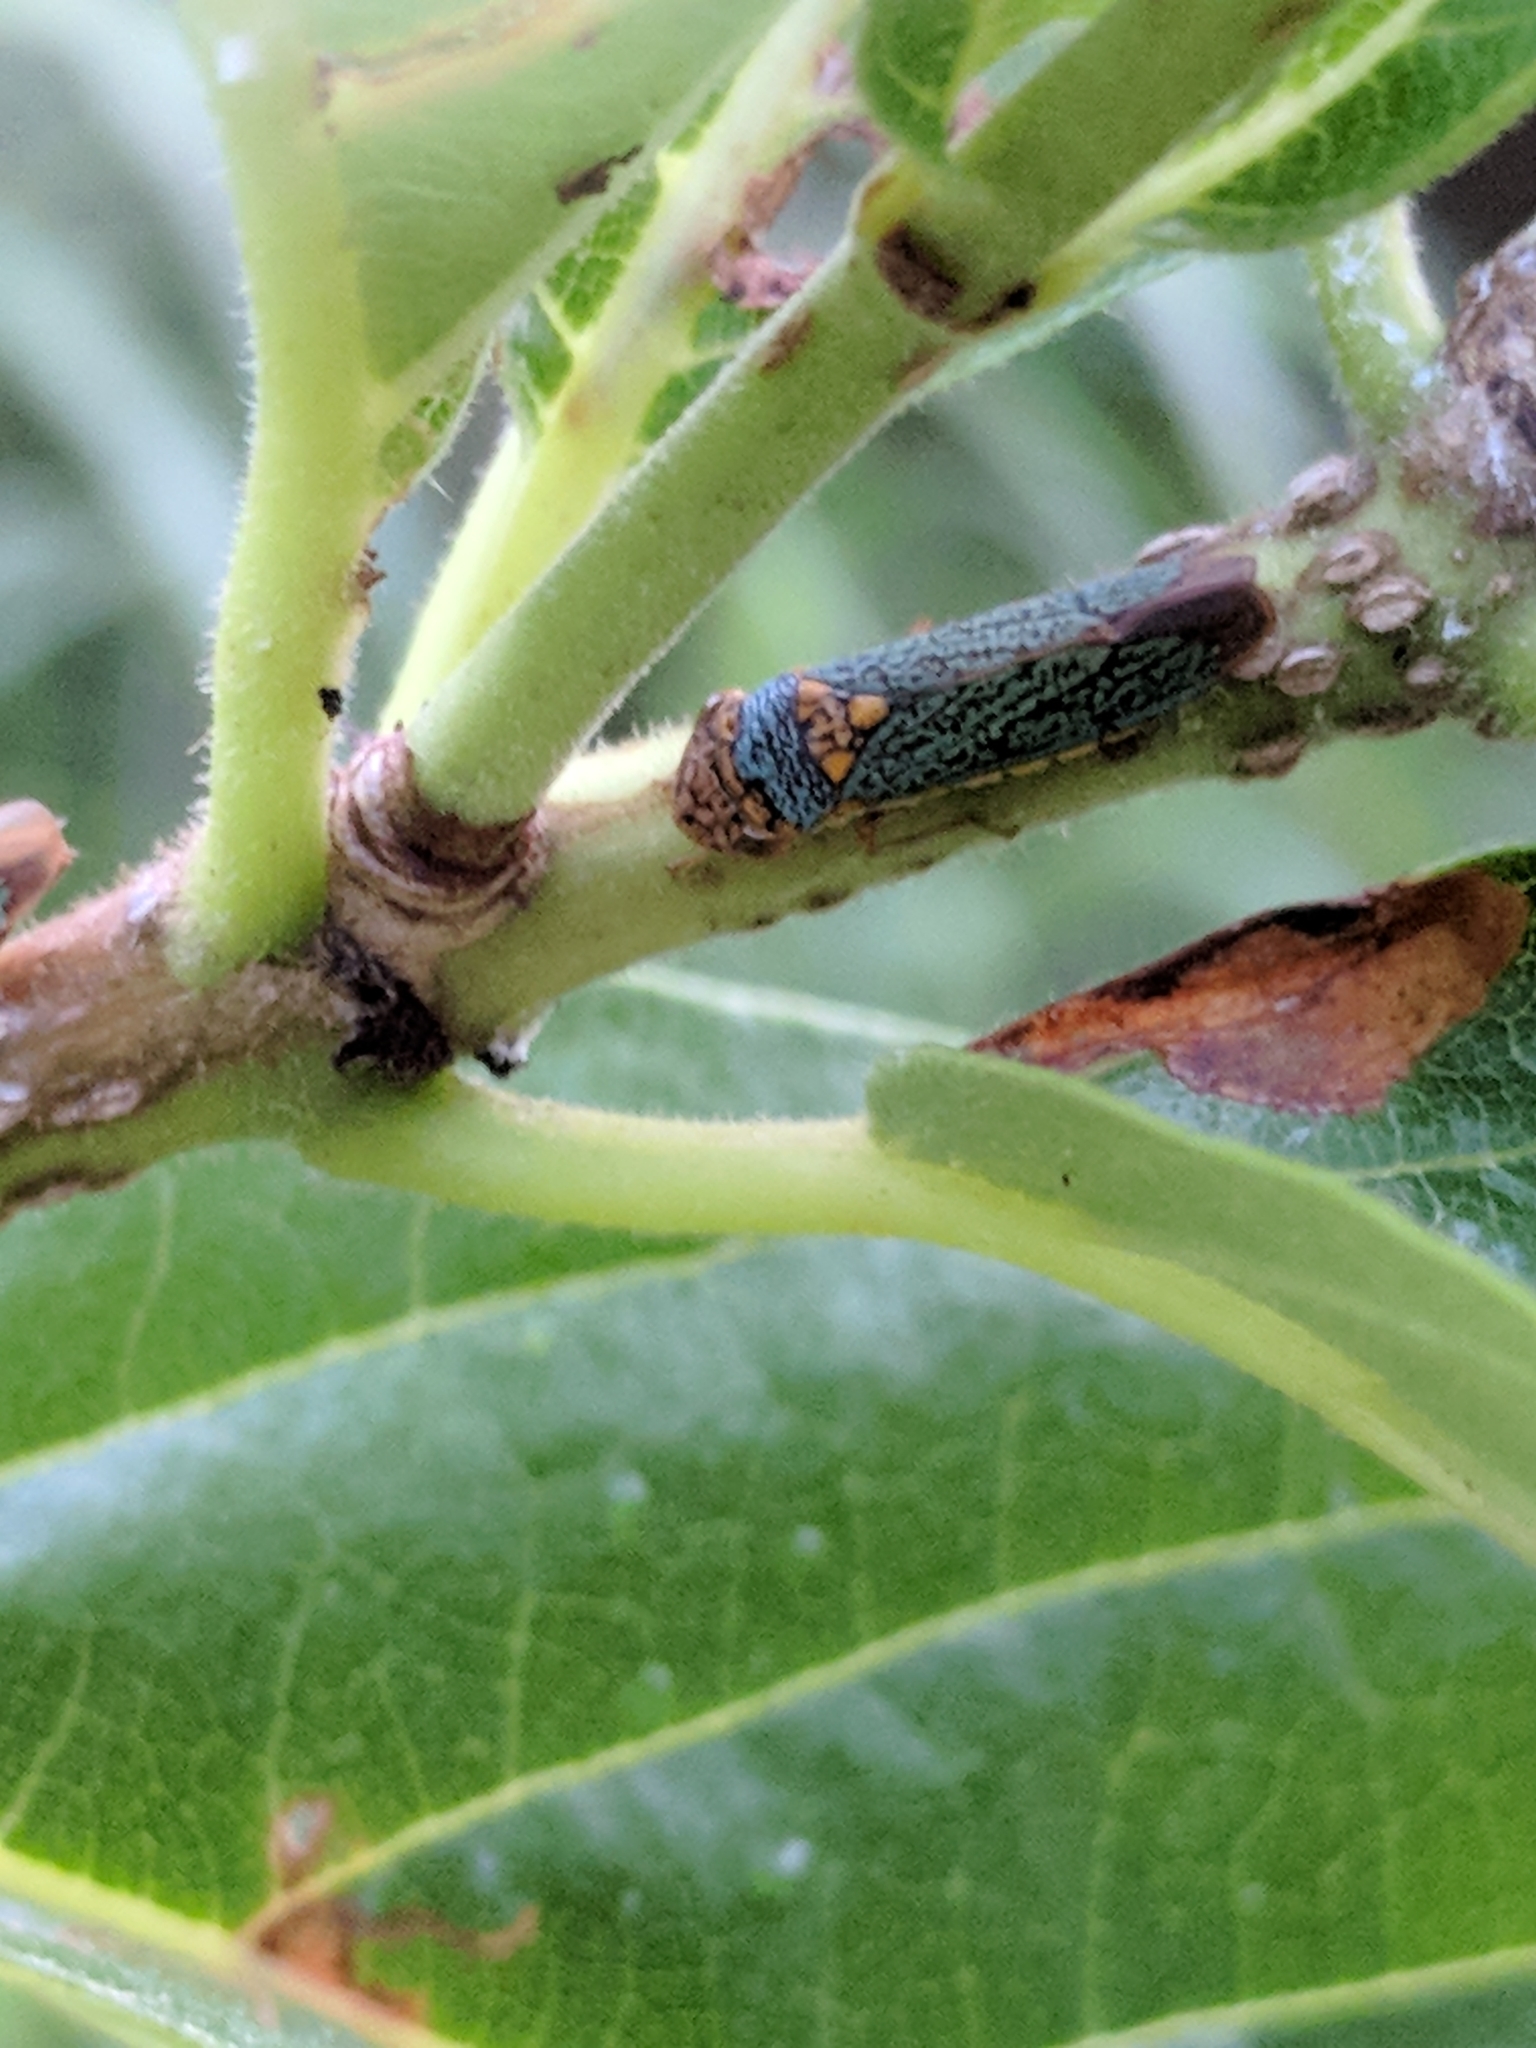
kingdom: Animalia
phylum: Arthropoda
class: Insecta
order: Hemiptera
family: Cicadellidae
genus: Oncometopia
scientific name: Oncometopia orbona
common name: Broad-headed sharpshooter
